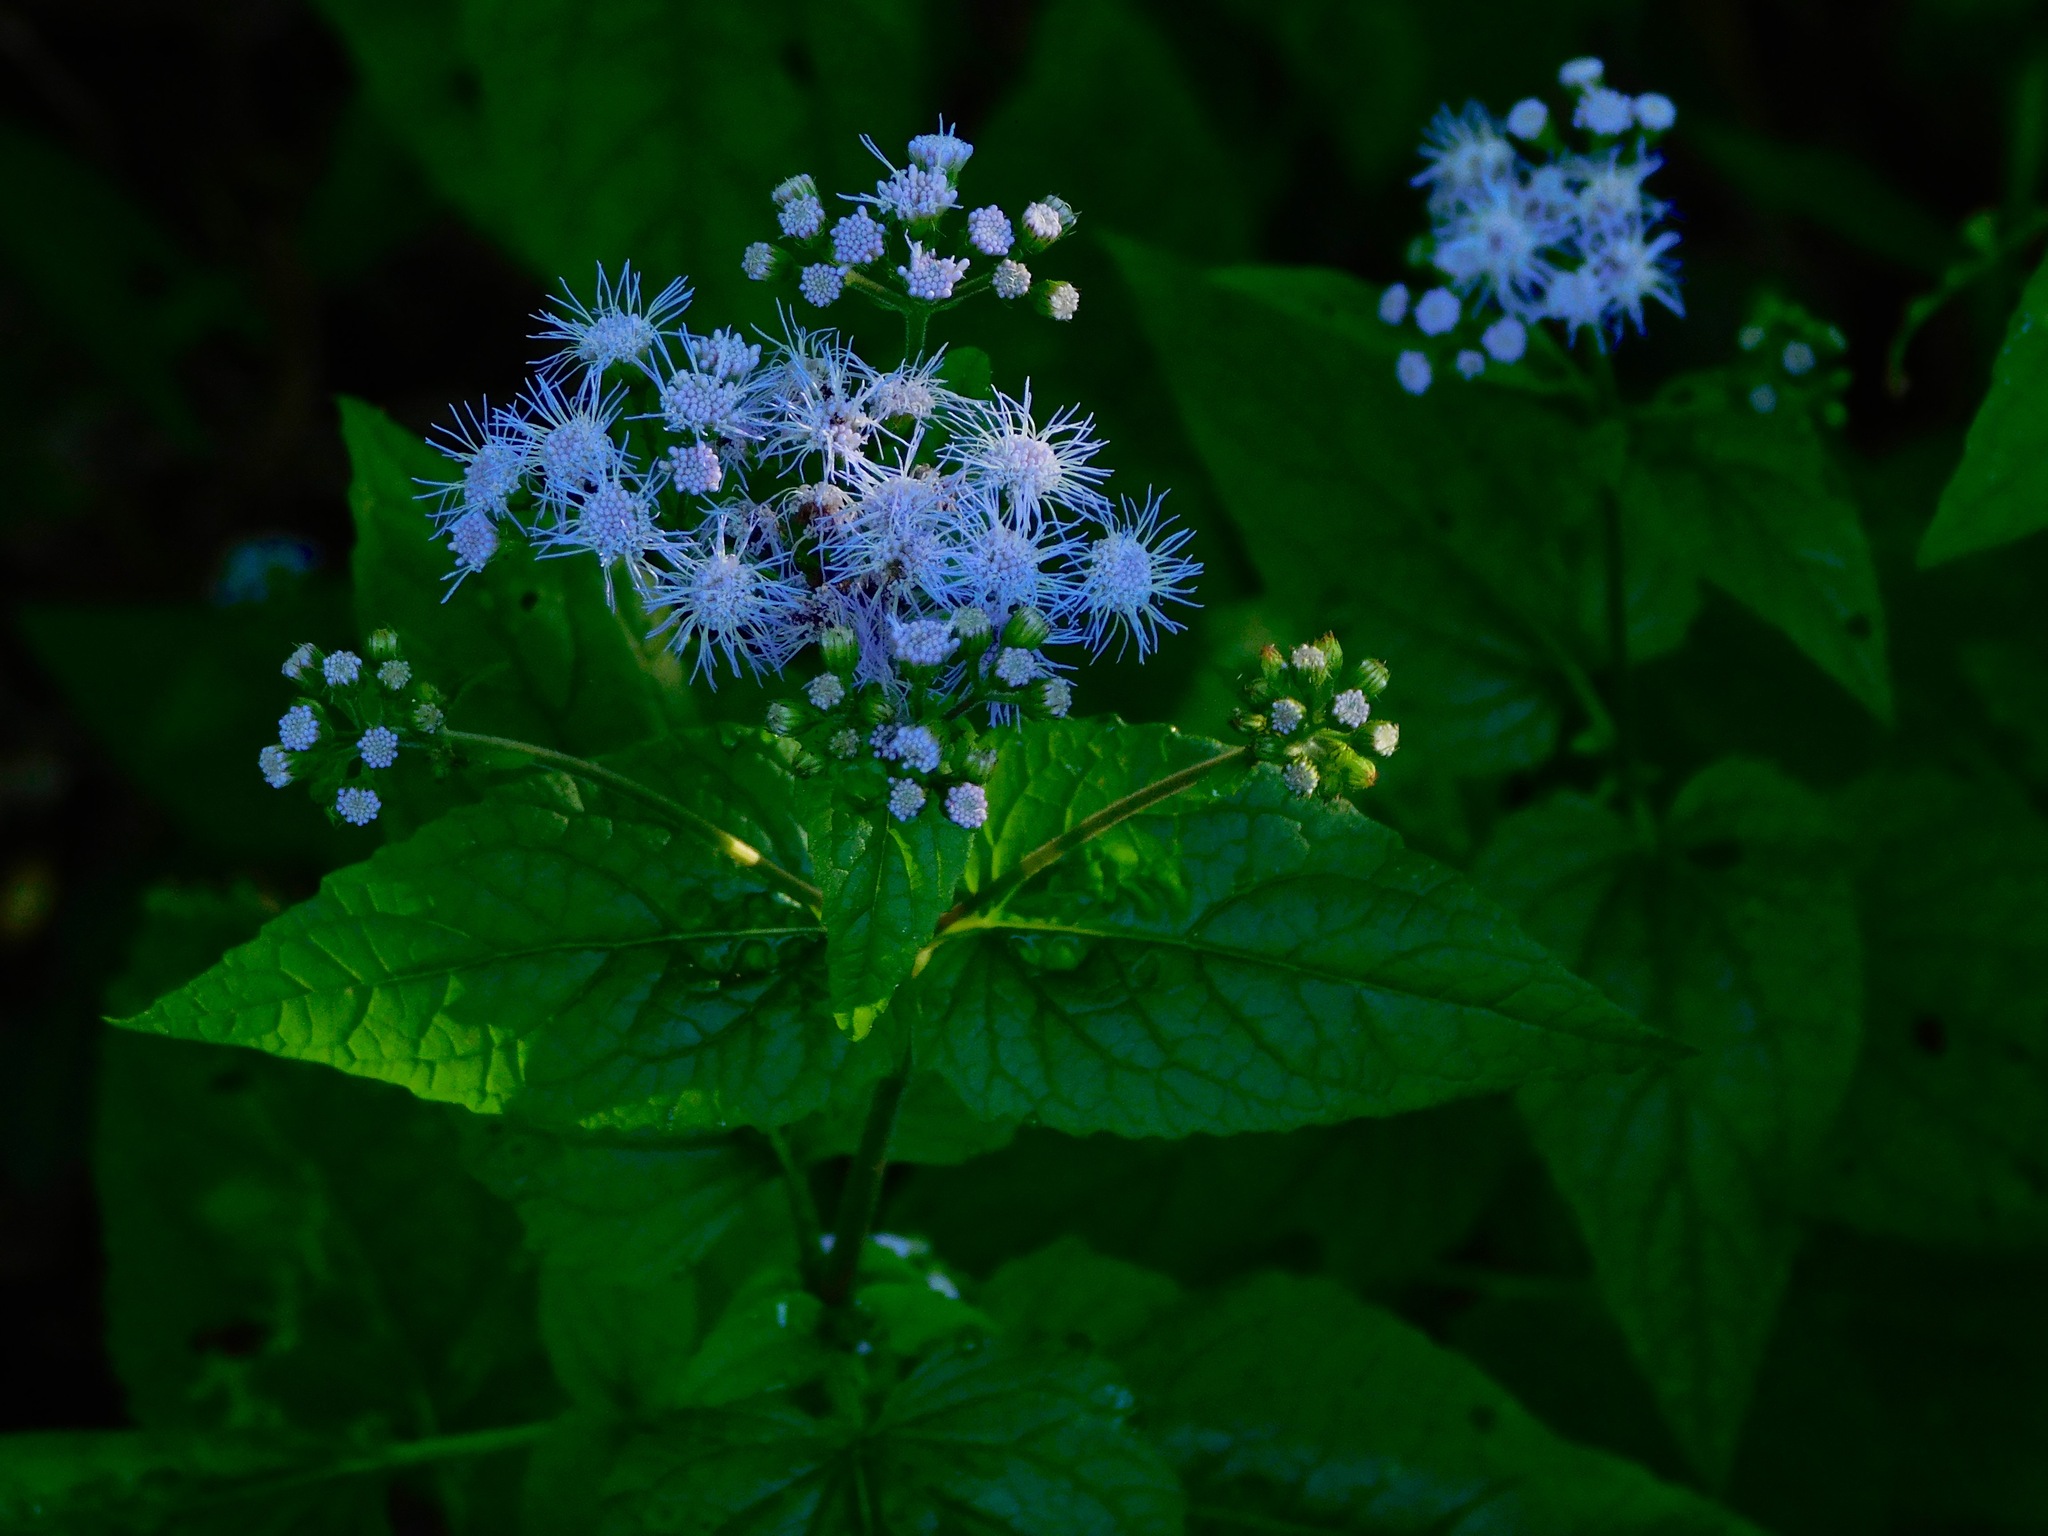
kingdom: Plantae
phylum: Tracheophyta
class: Magnoliopsida
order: Asterales
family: Asteraceae
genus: Conoclinium
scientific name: Conoclinium coelestinum
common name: Blue mistflower
